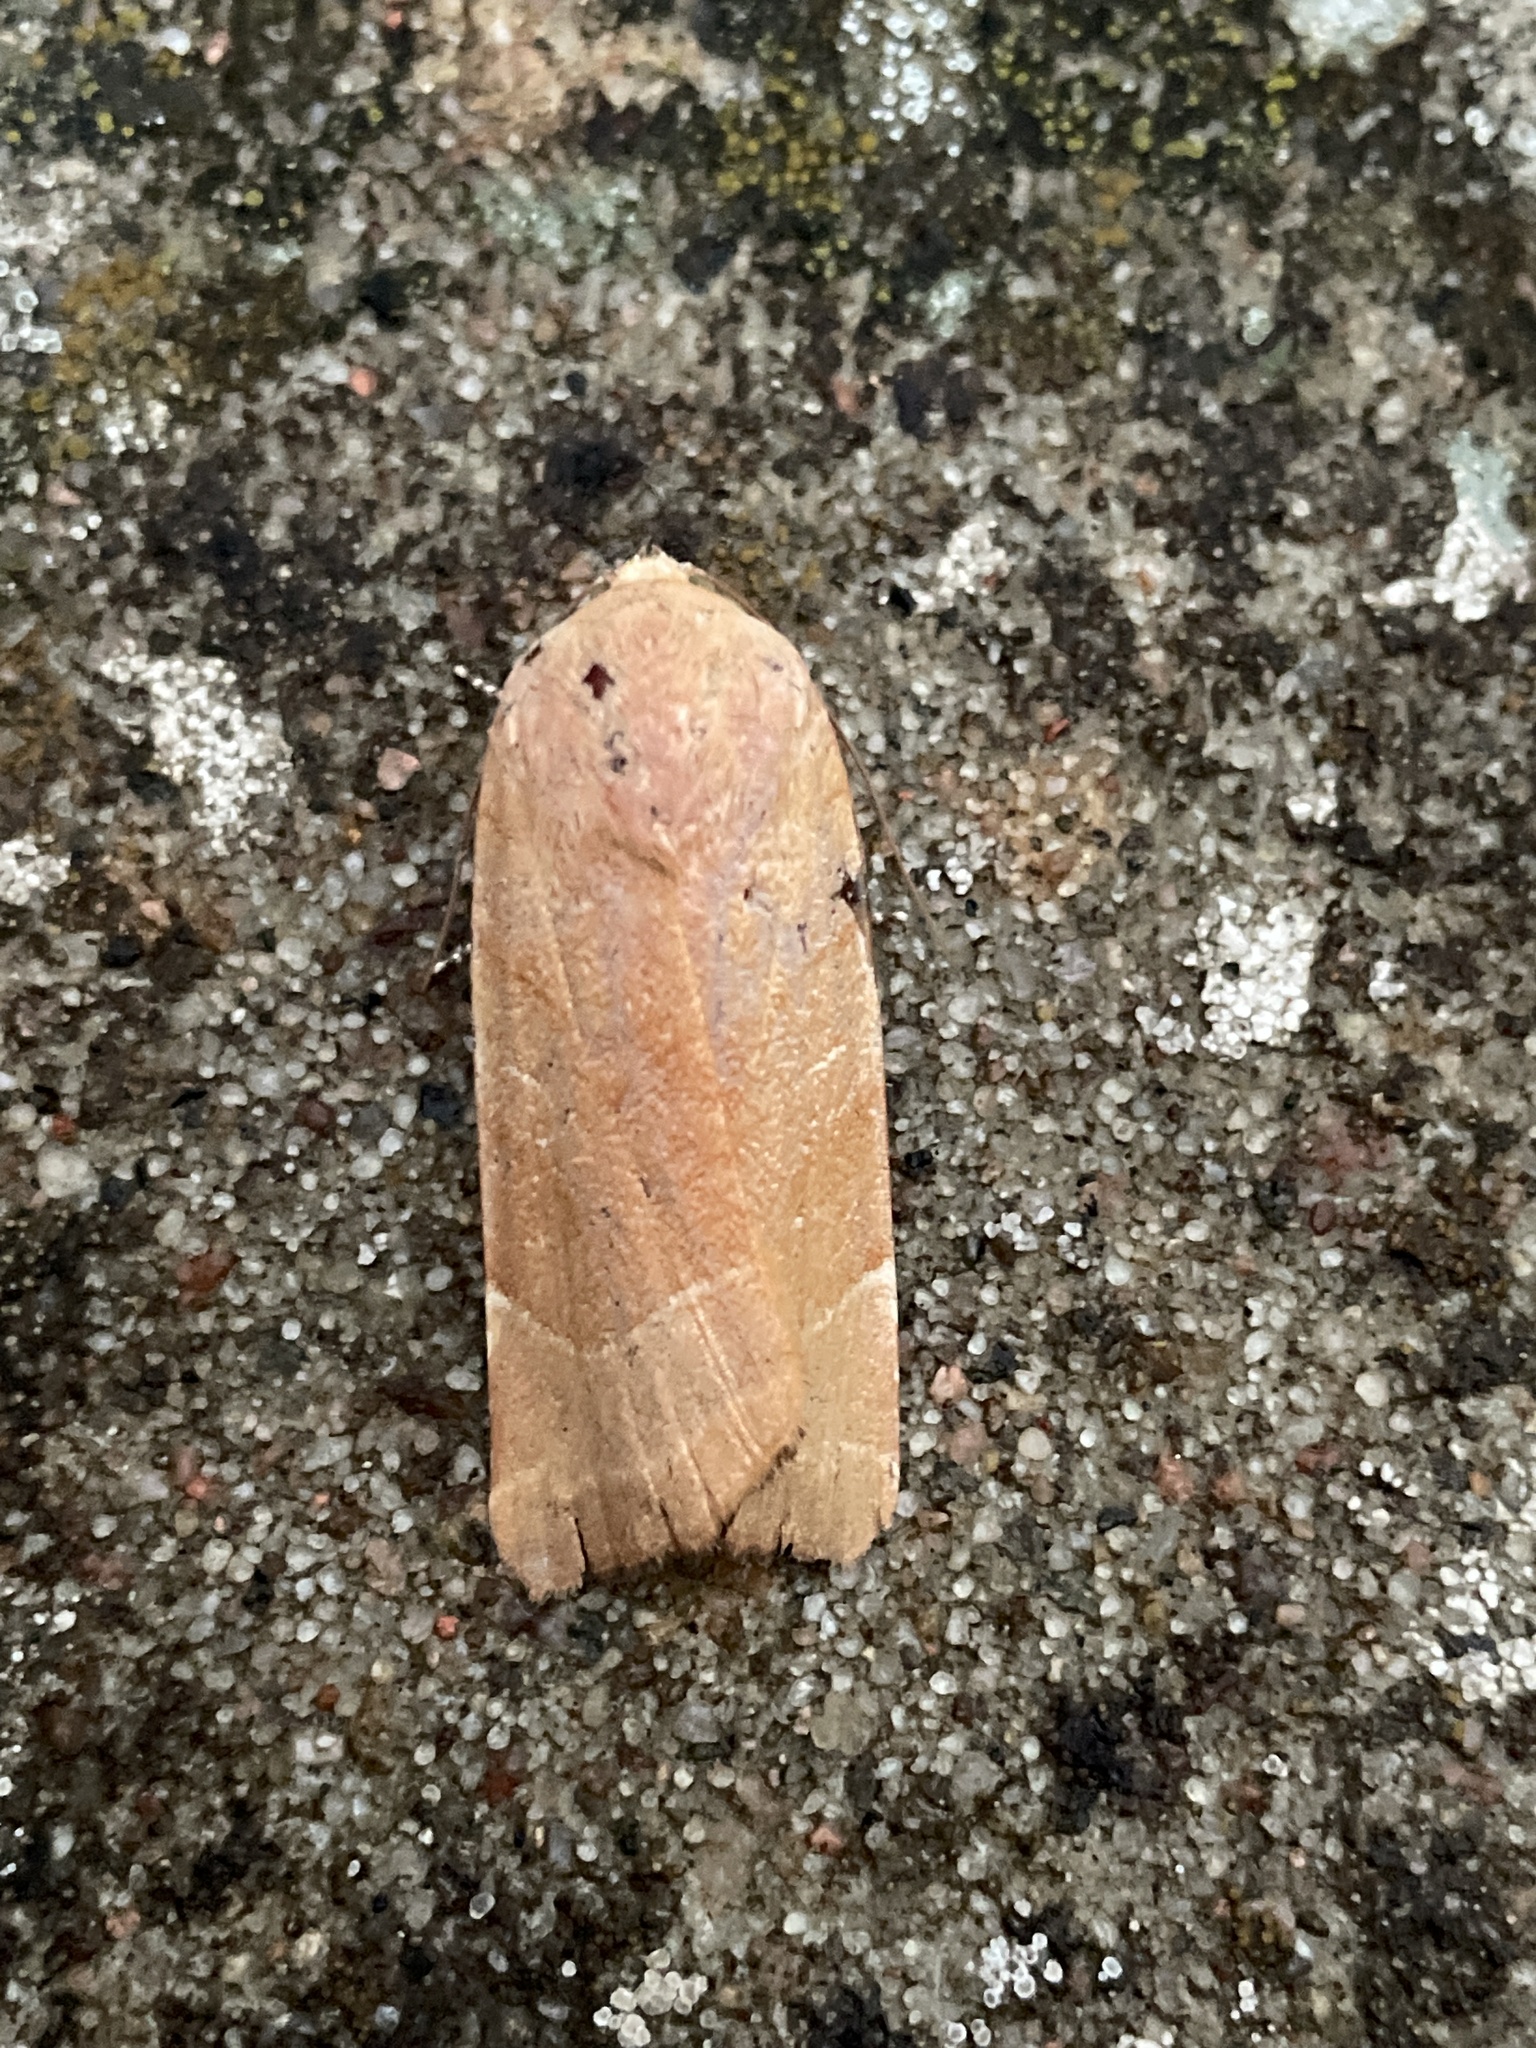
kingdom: Animalia
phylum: Arthropoda
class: Insecta
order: Lepidoptera
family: Noctuidae
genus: Noctua
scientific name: Noctua fimbriata
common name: Broad-bordered yellow underwing
